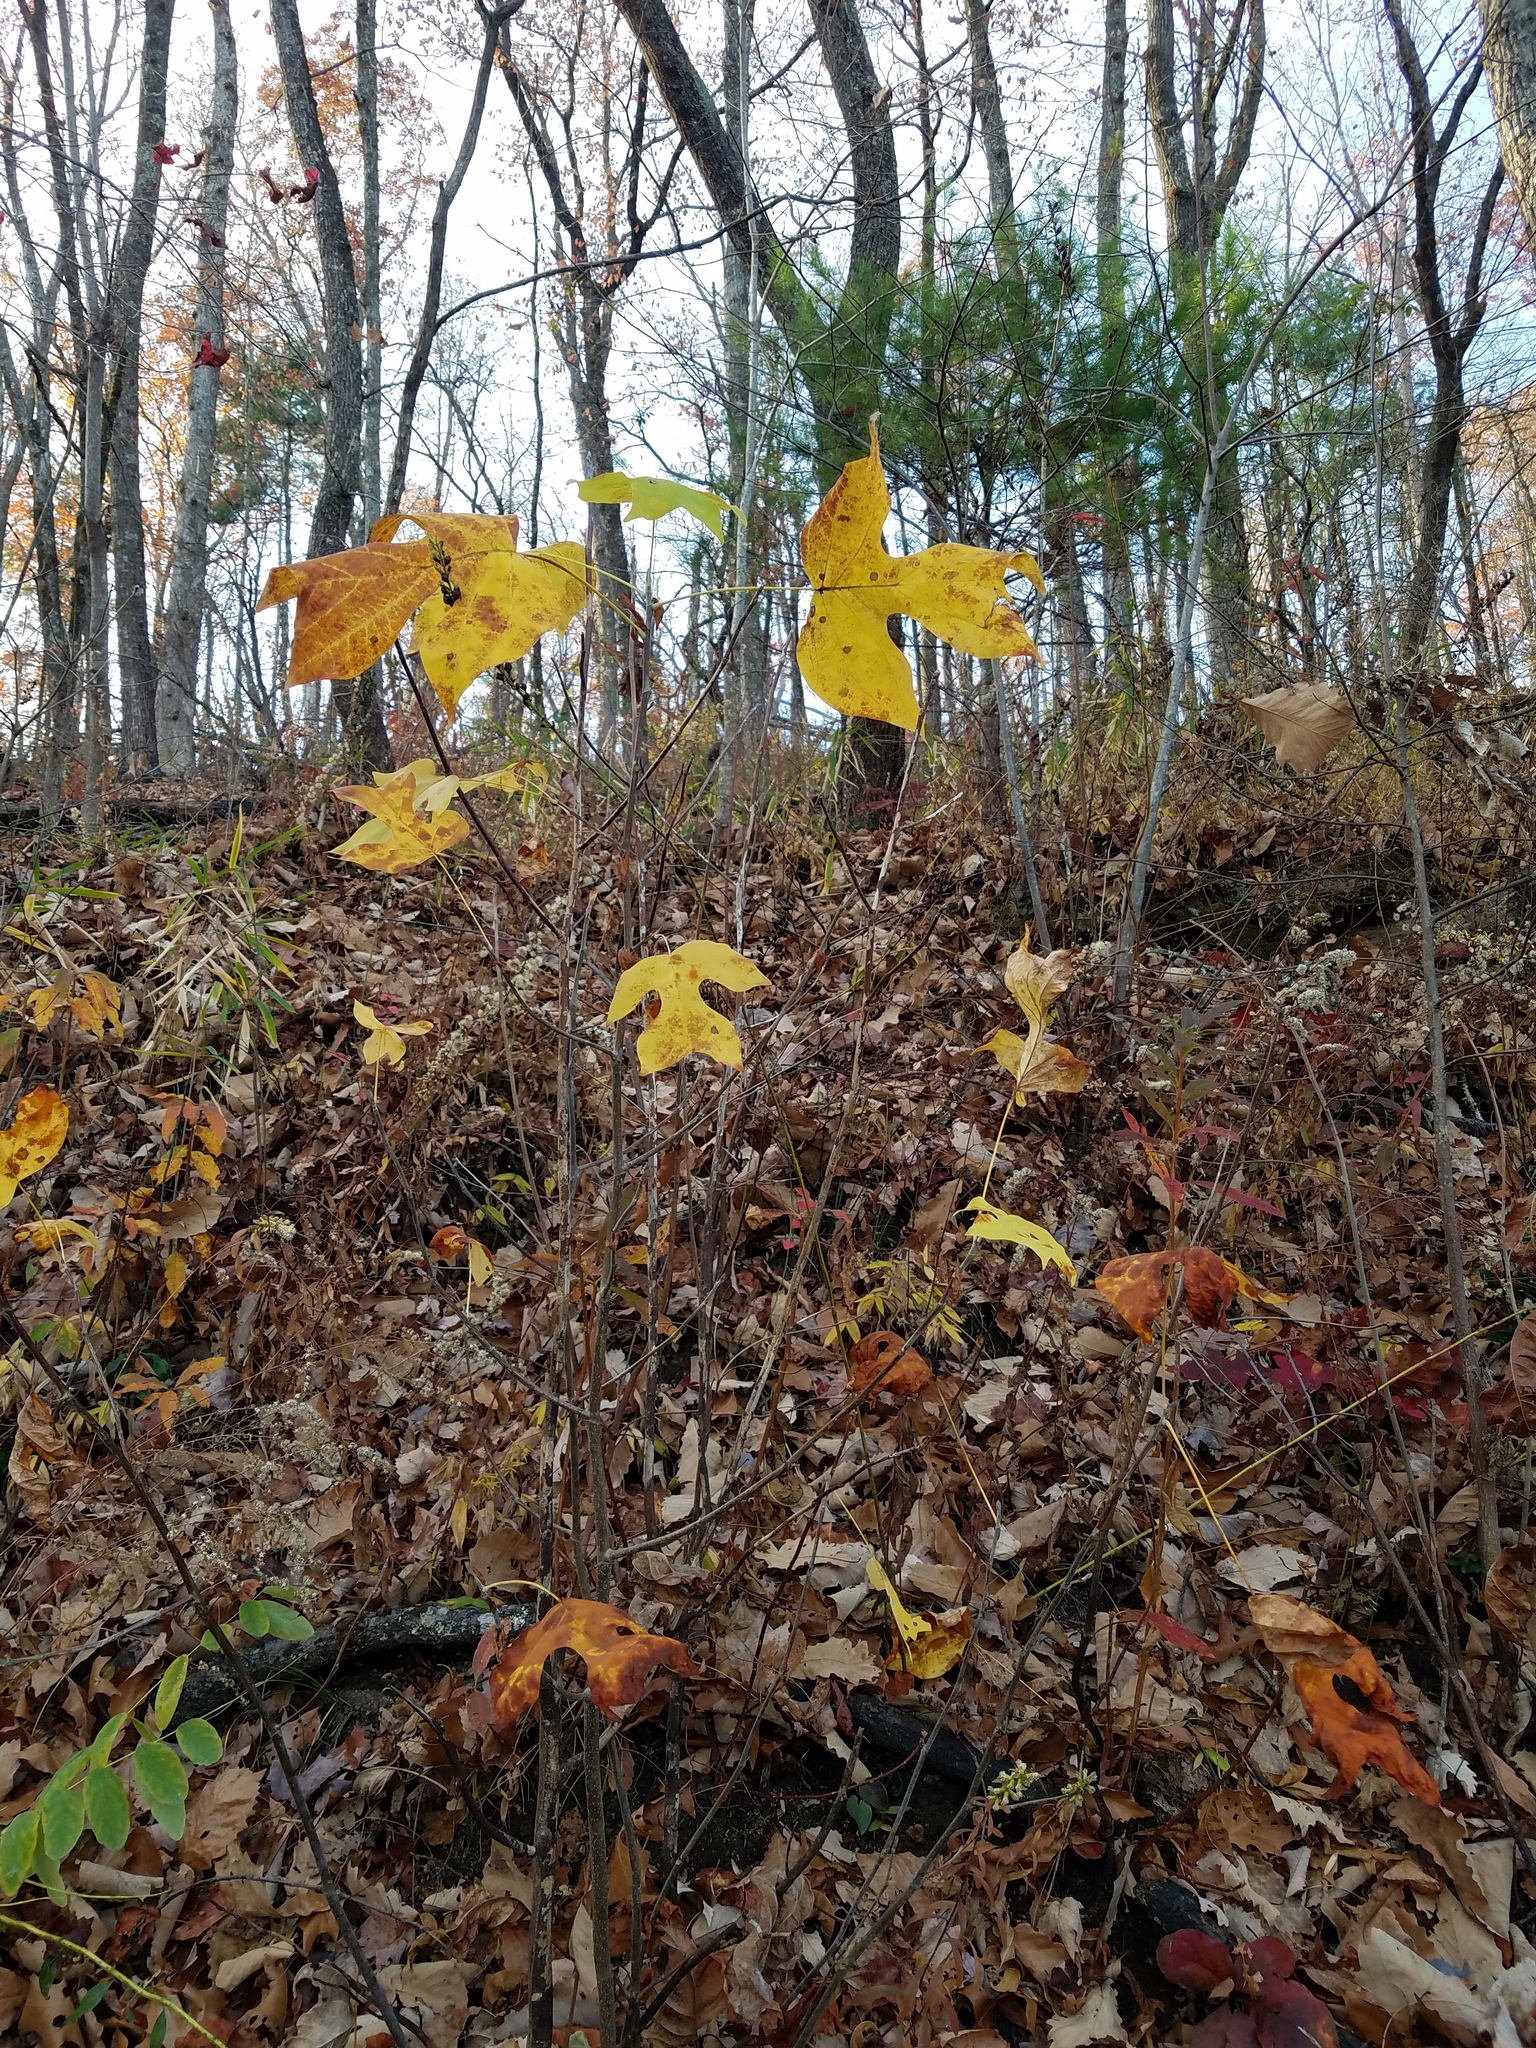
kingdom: Plantae
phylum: Tracheophyta
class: Magnoliopsida
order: Magnoliales
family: Magnoliaceae
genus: Liriodendron
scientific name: Liriodendron tulipifera
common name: Tulip tree
